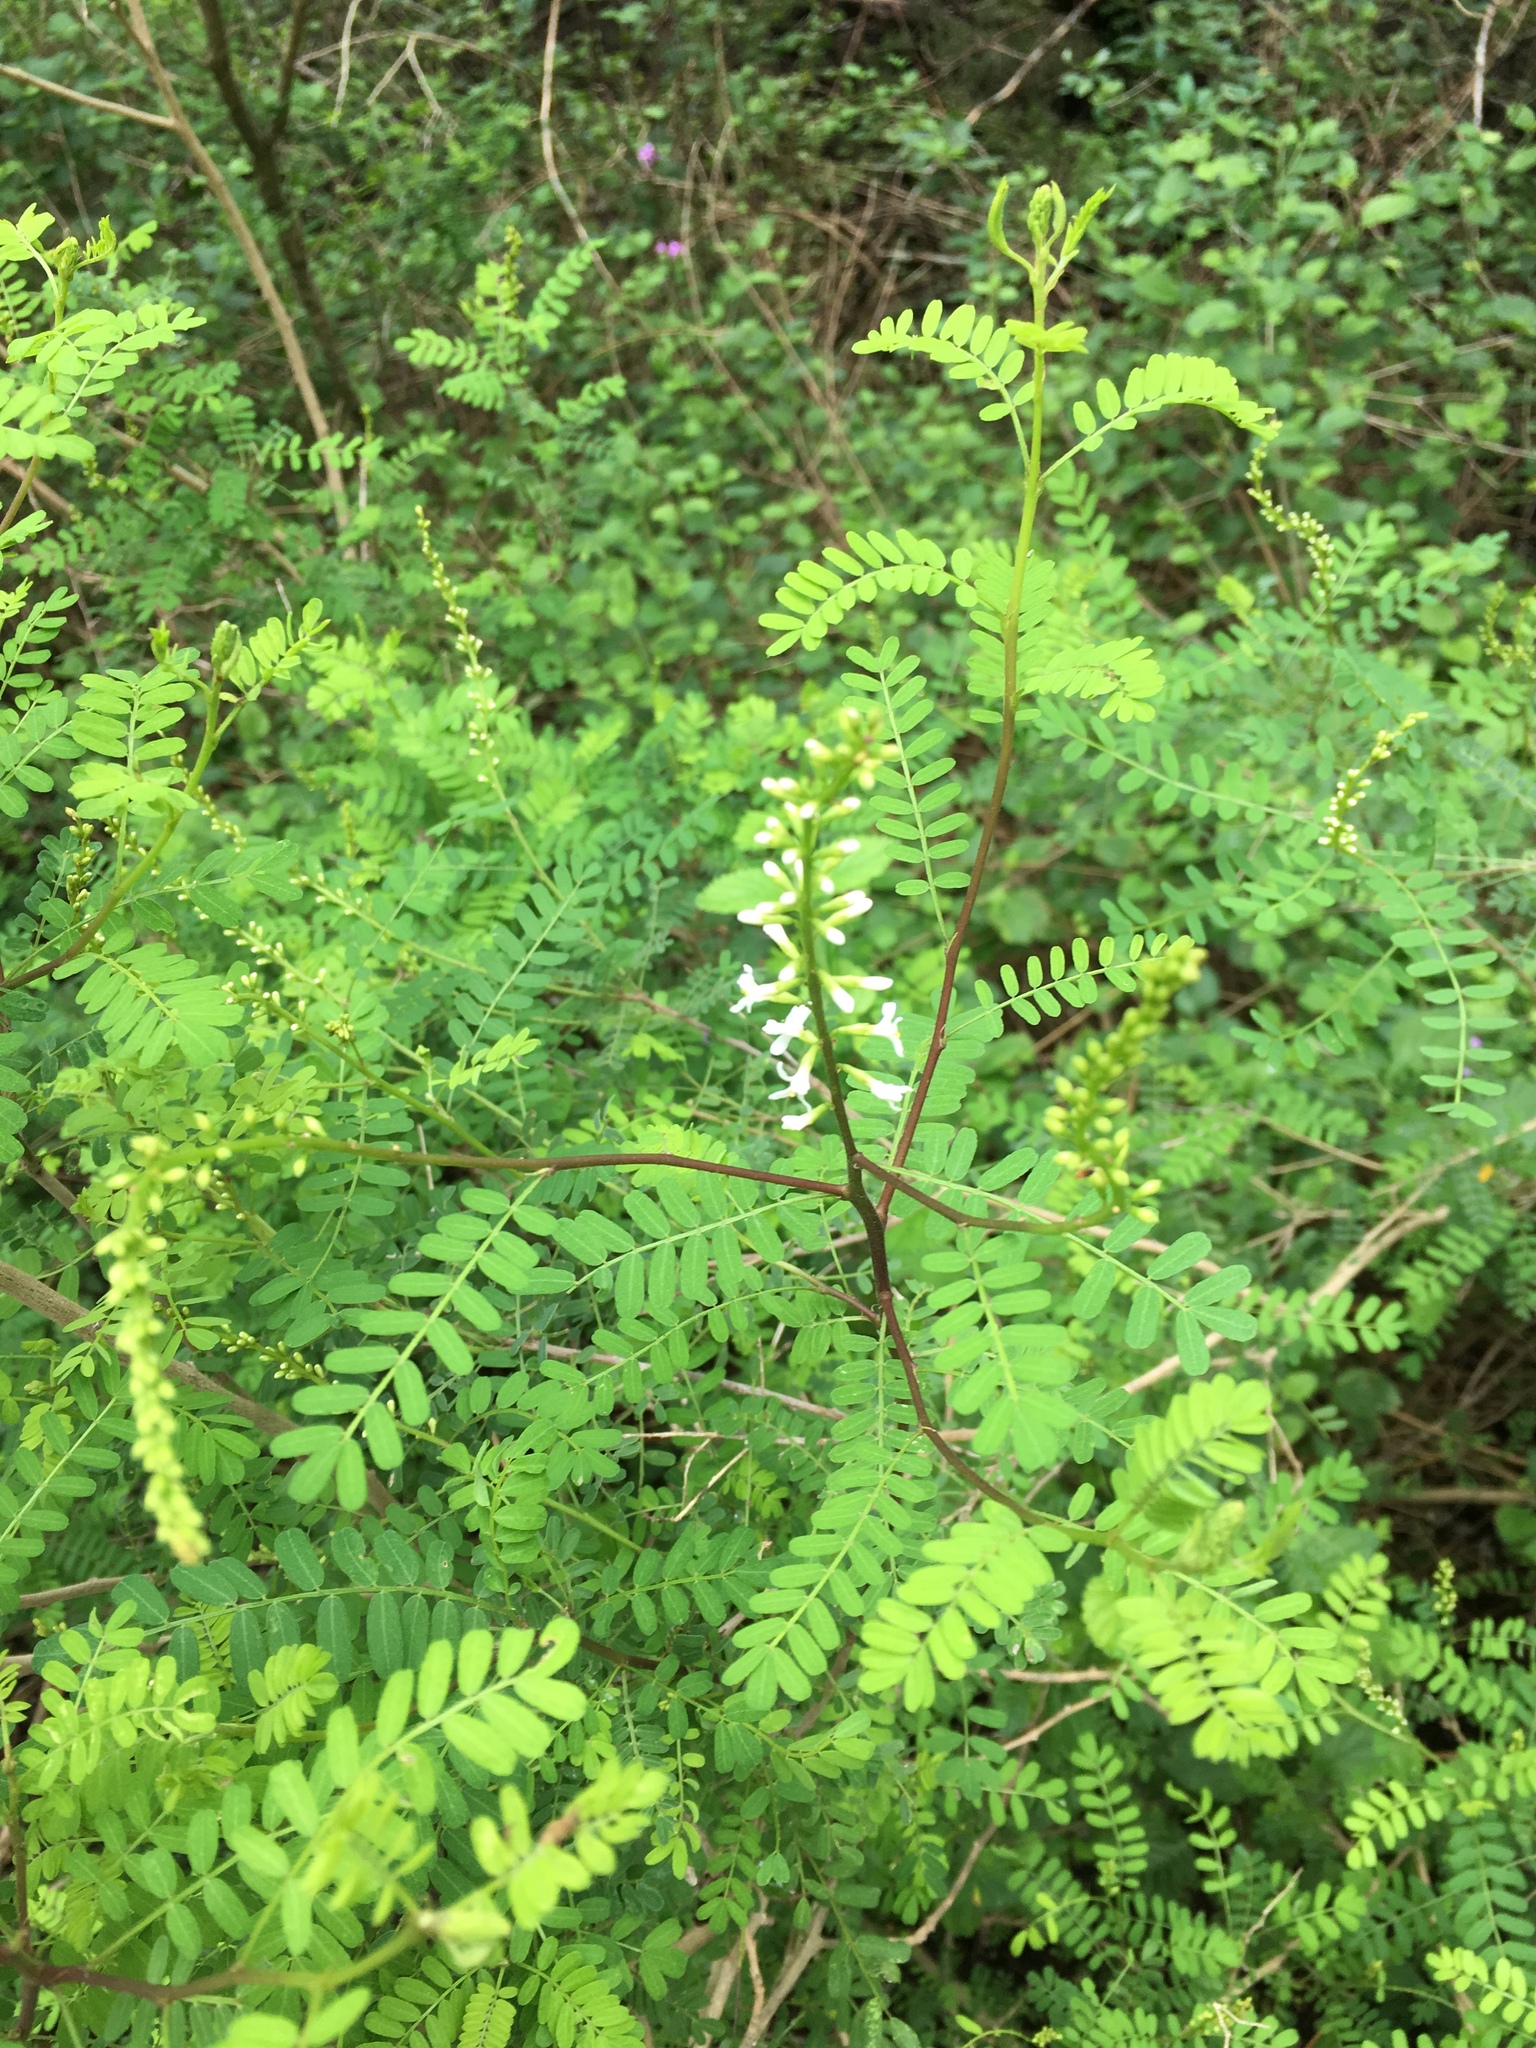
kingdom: Plantae
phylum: Tracheophyta
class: Magnoliopsida
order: Fabales
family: Fabaceae
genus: Eysenhardtia
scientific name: Eysenhardtia texana
